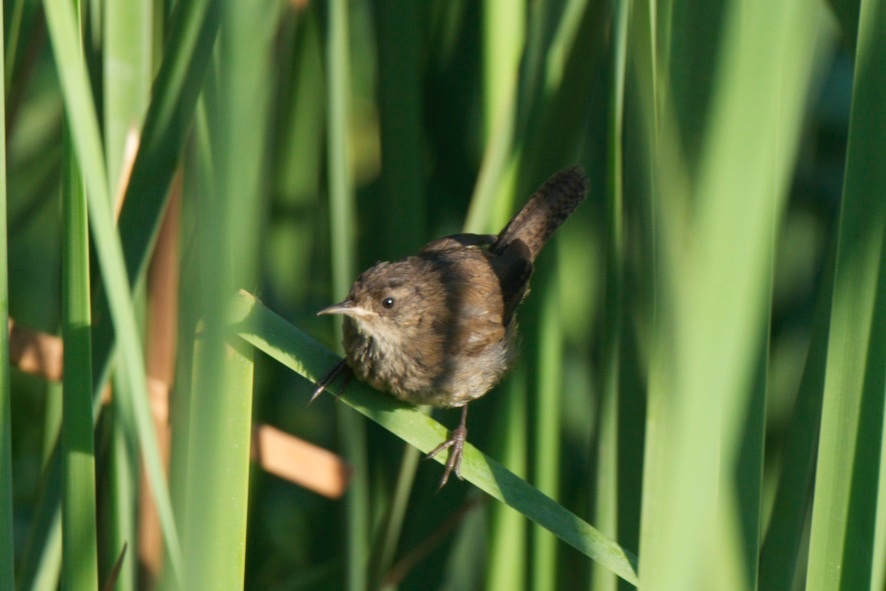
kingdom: Animalia
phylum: Chordata
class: Aves
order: Passeriformes
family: Troglodytidae
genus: Cistothorus
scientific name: Cistothorus palustris
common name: Marsh wren
